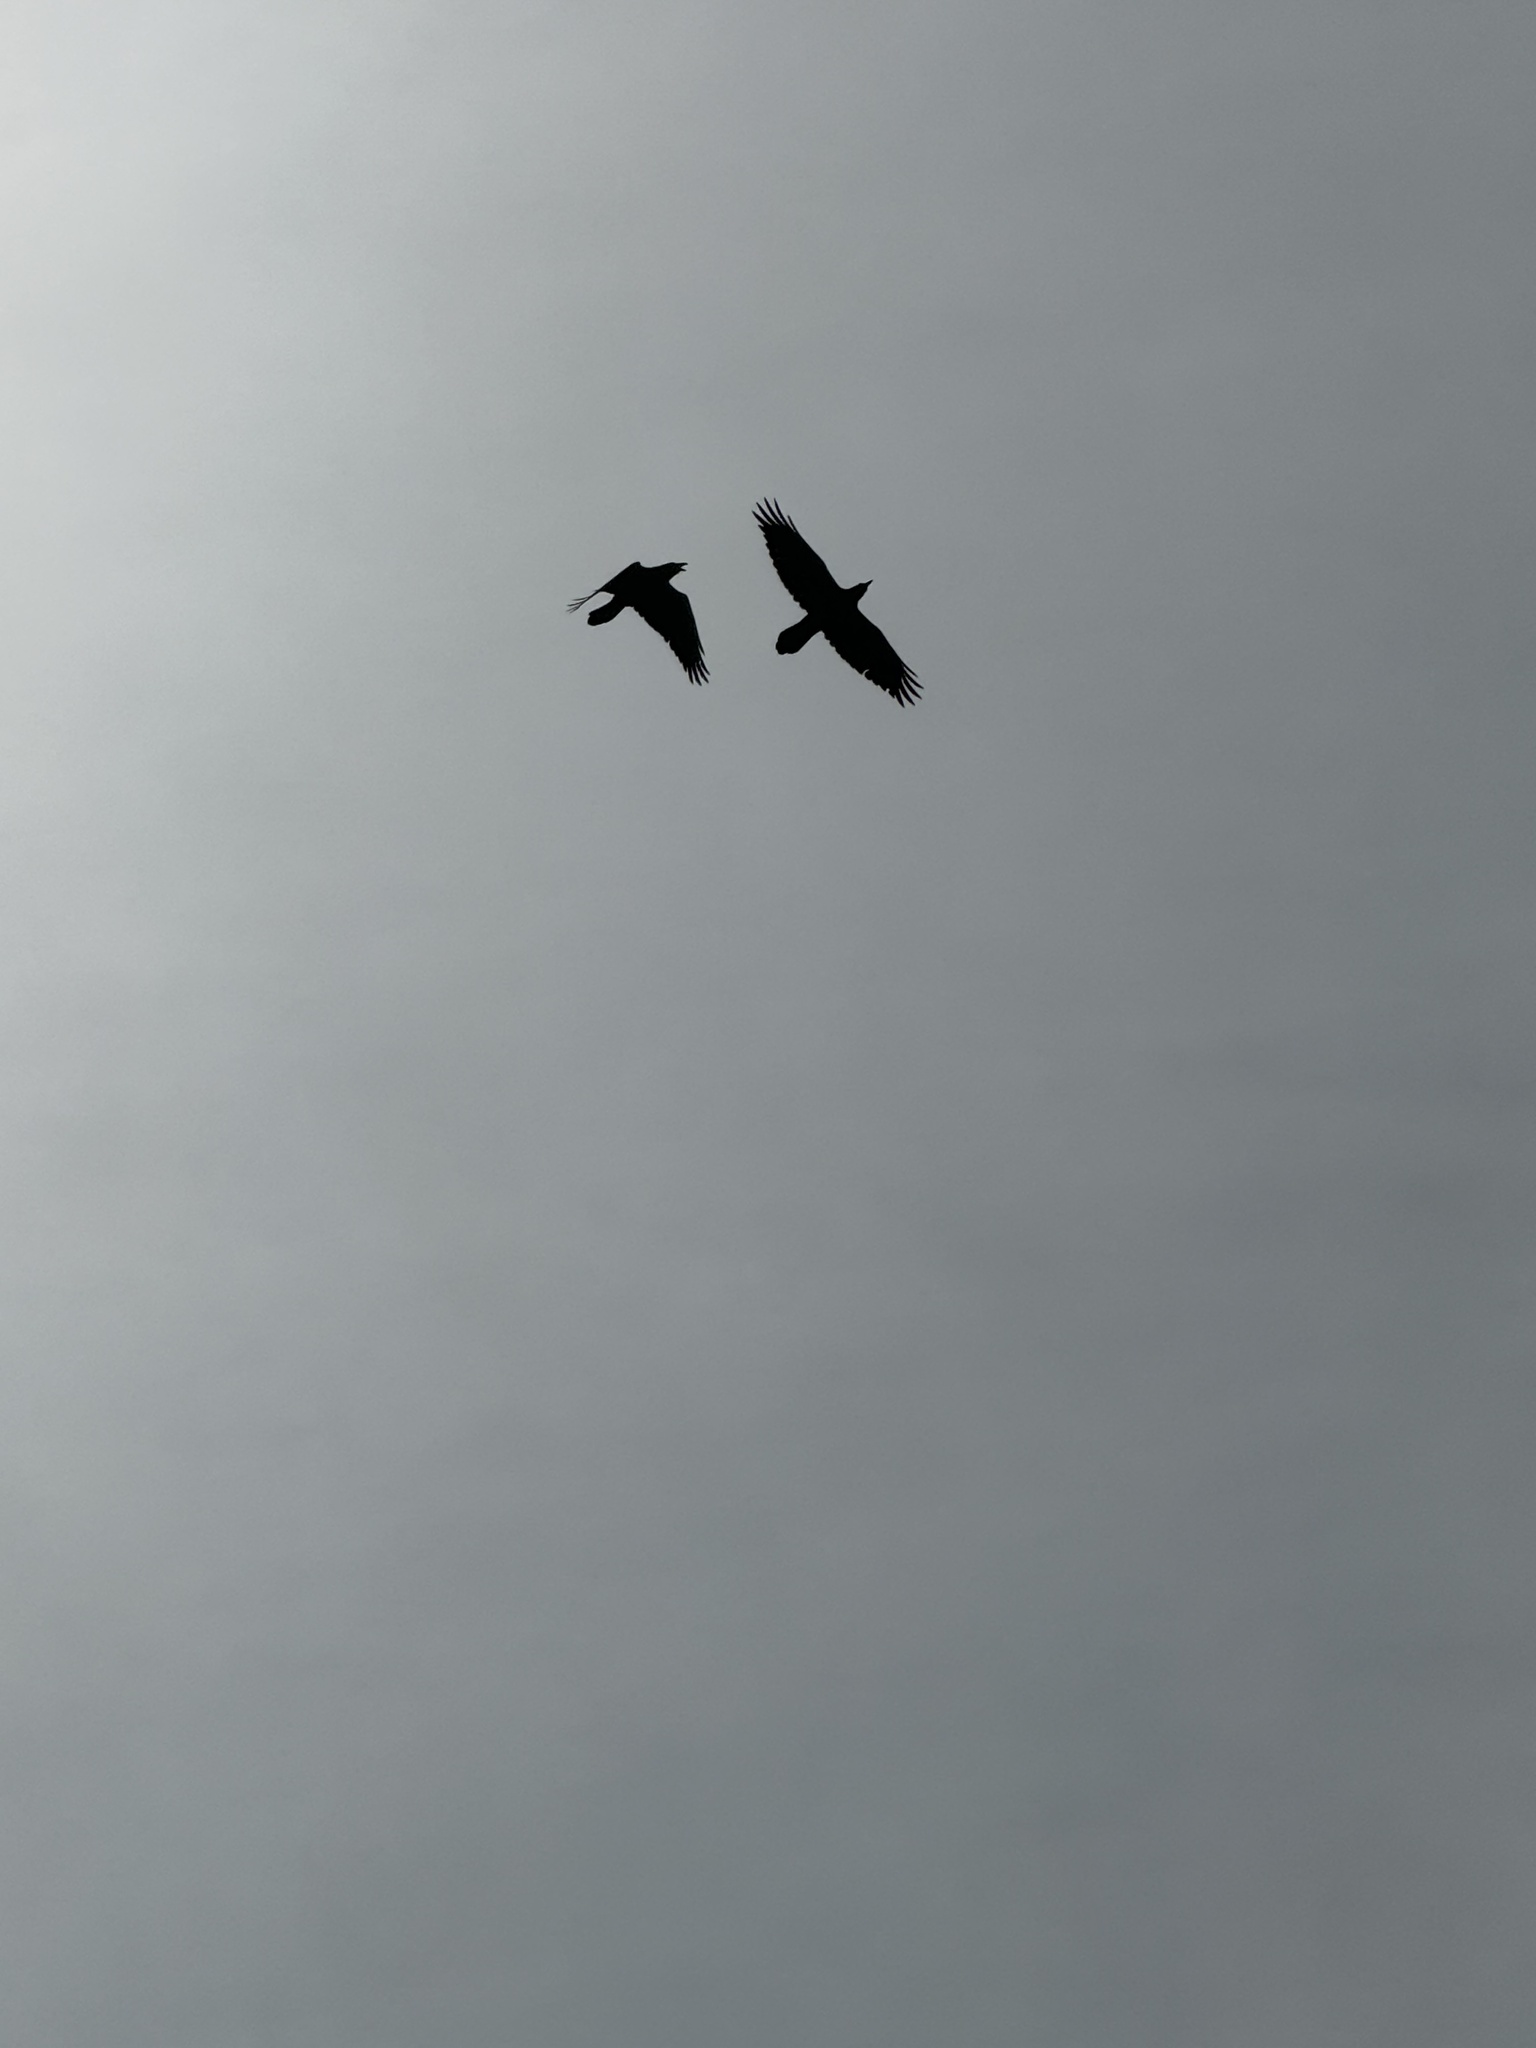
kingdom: Animalia
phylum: Chordata
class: Aves
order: Passeriformes
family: Corvidae
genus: Corvus
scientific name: Corvus corax
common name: Common raven
